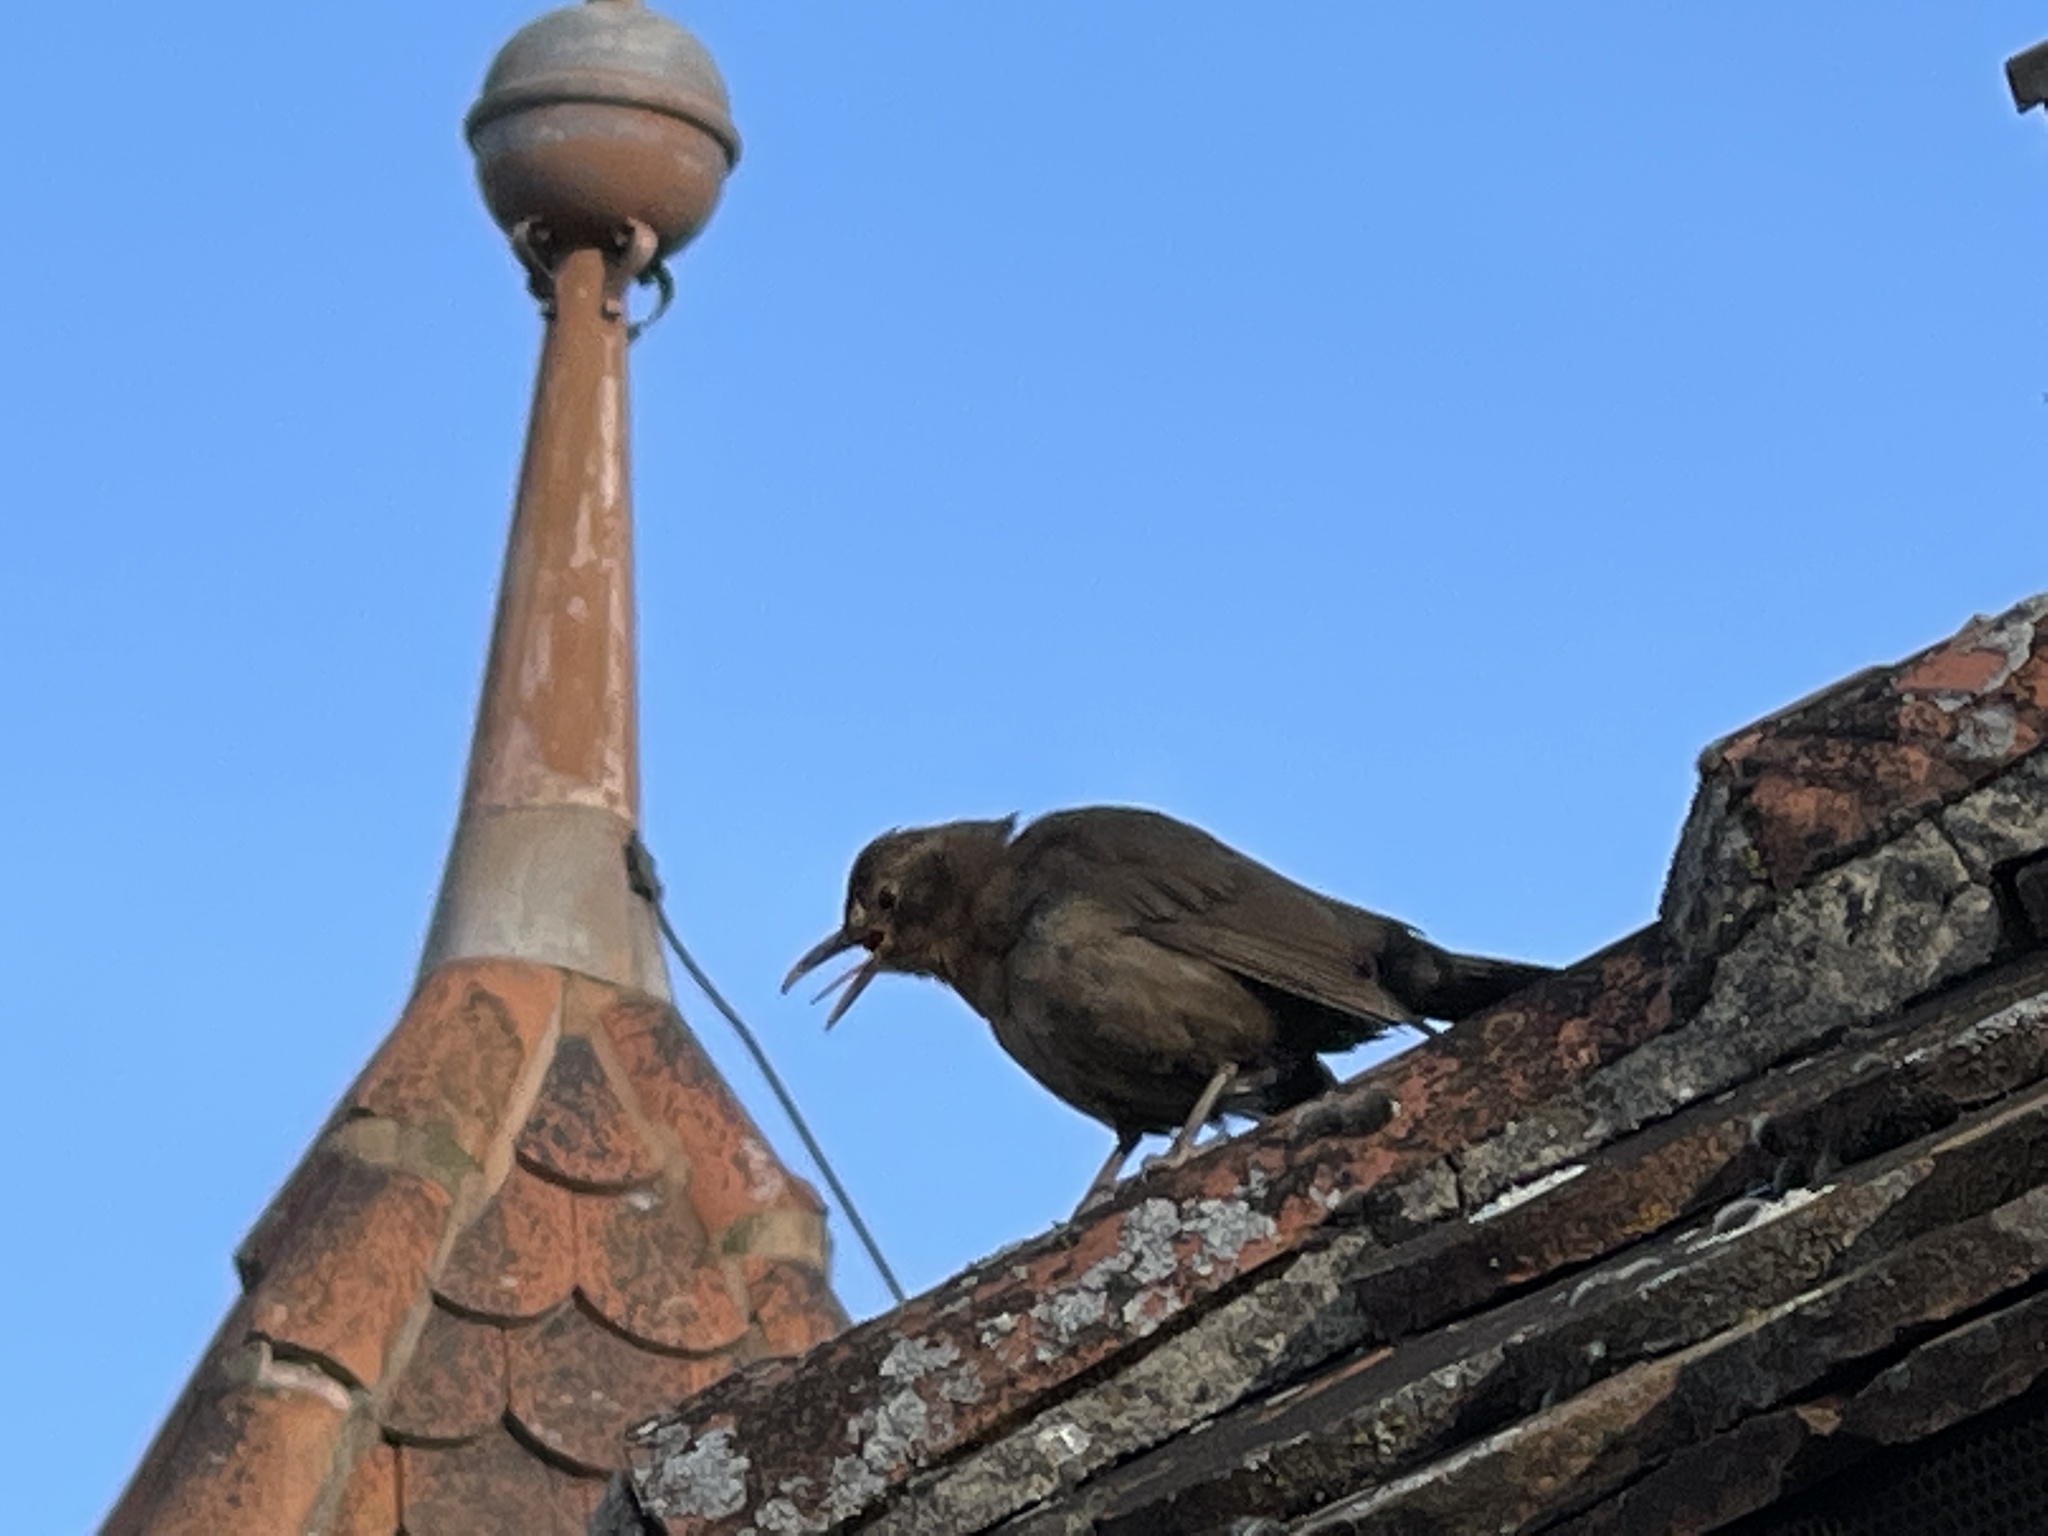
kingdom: Animalia
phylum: Chordata
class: Aves
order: Passeriformes
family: Turdidae
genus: Turdus
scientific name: Turdus merula
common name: Common blackbird
